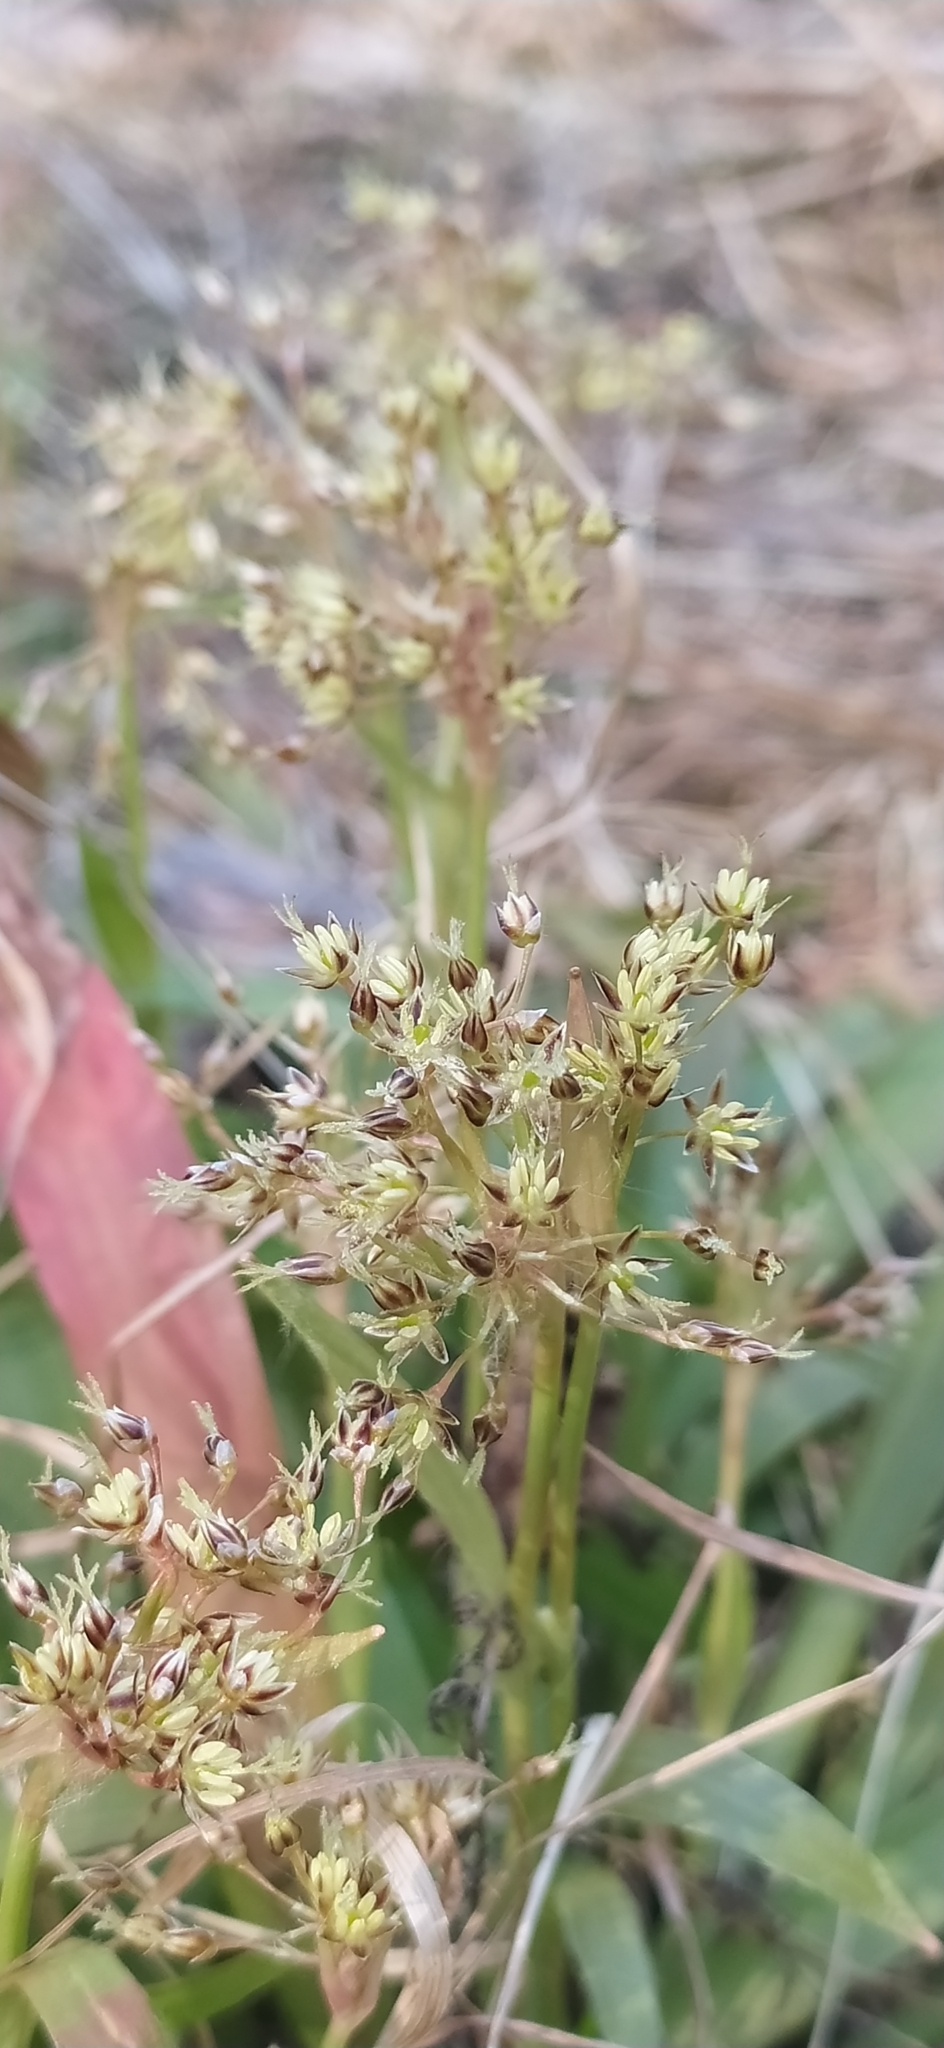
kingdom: Plantae
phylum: Tracheophyta
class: Liliopsida
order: Poales
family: Juncaceae
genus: Luzula
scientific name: Luzula pilosa
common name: Hairy wood-rush
